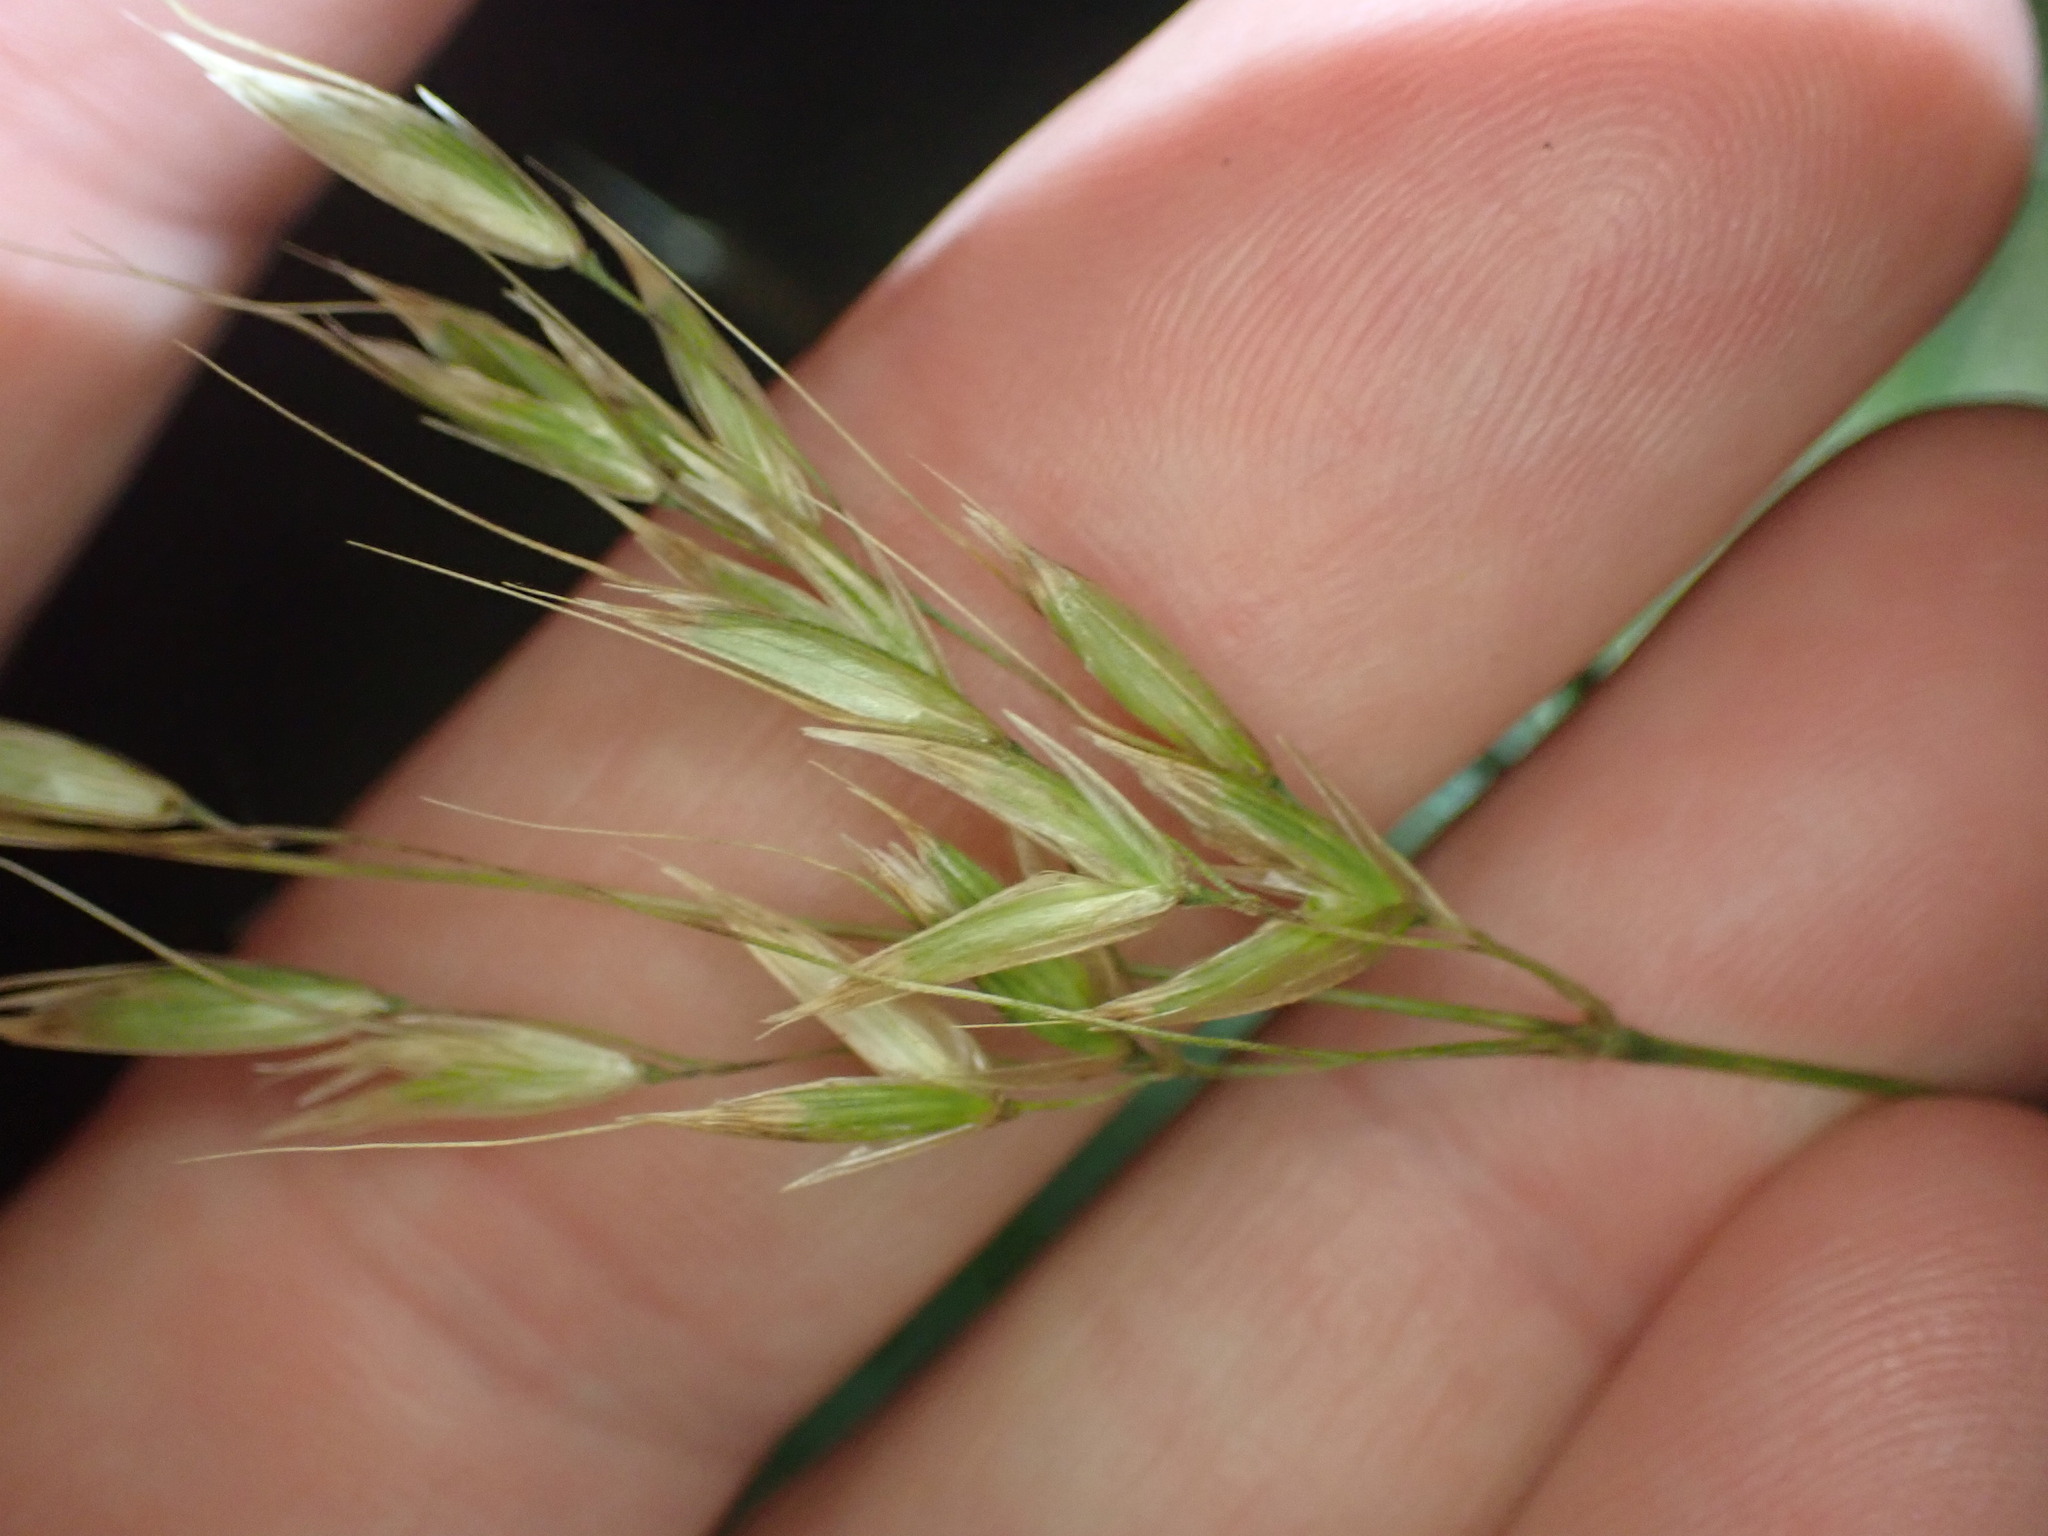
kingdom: Plantae
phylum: Tracheophyta
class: Liliopsida
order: Poales
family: Poaceae
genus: Arrhenatherum
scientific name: Arrhenatherum elatius
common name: Tall oatgrass
